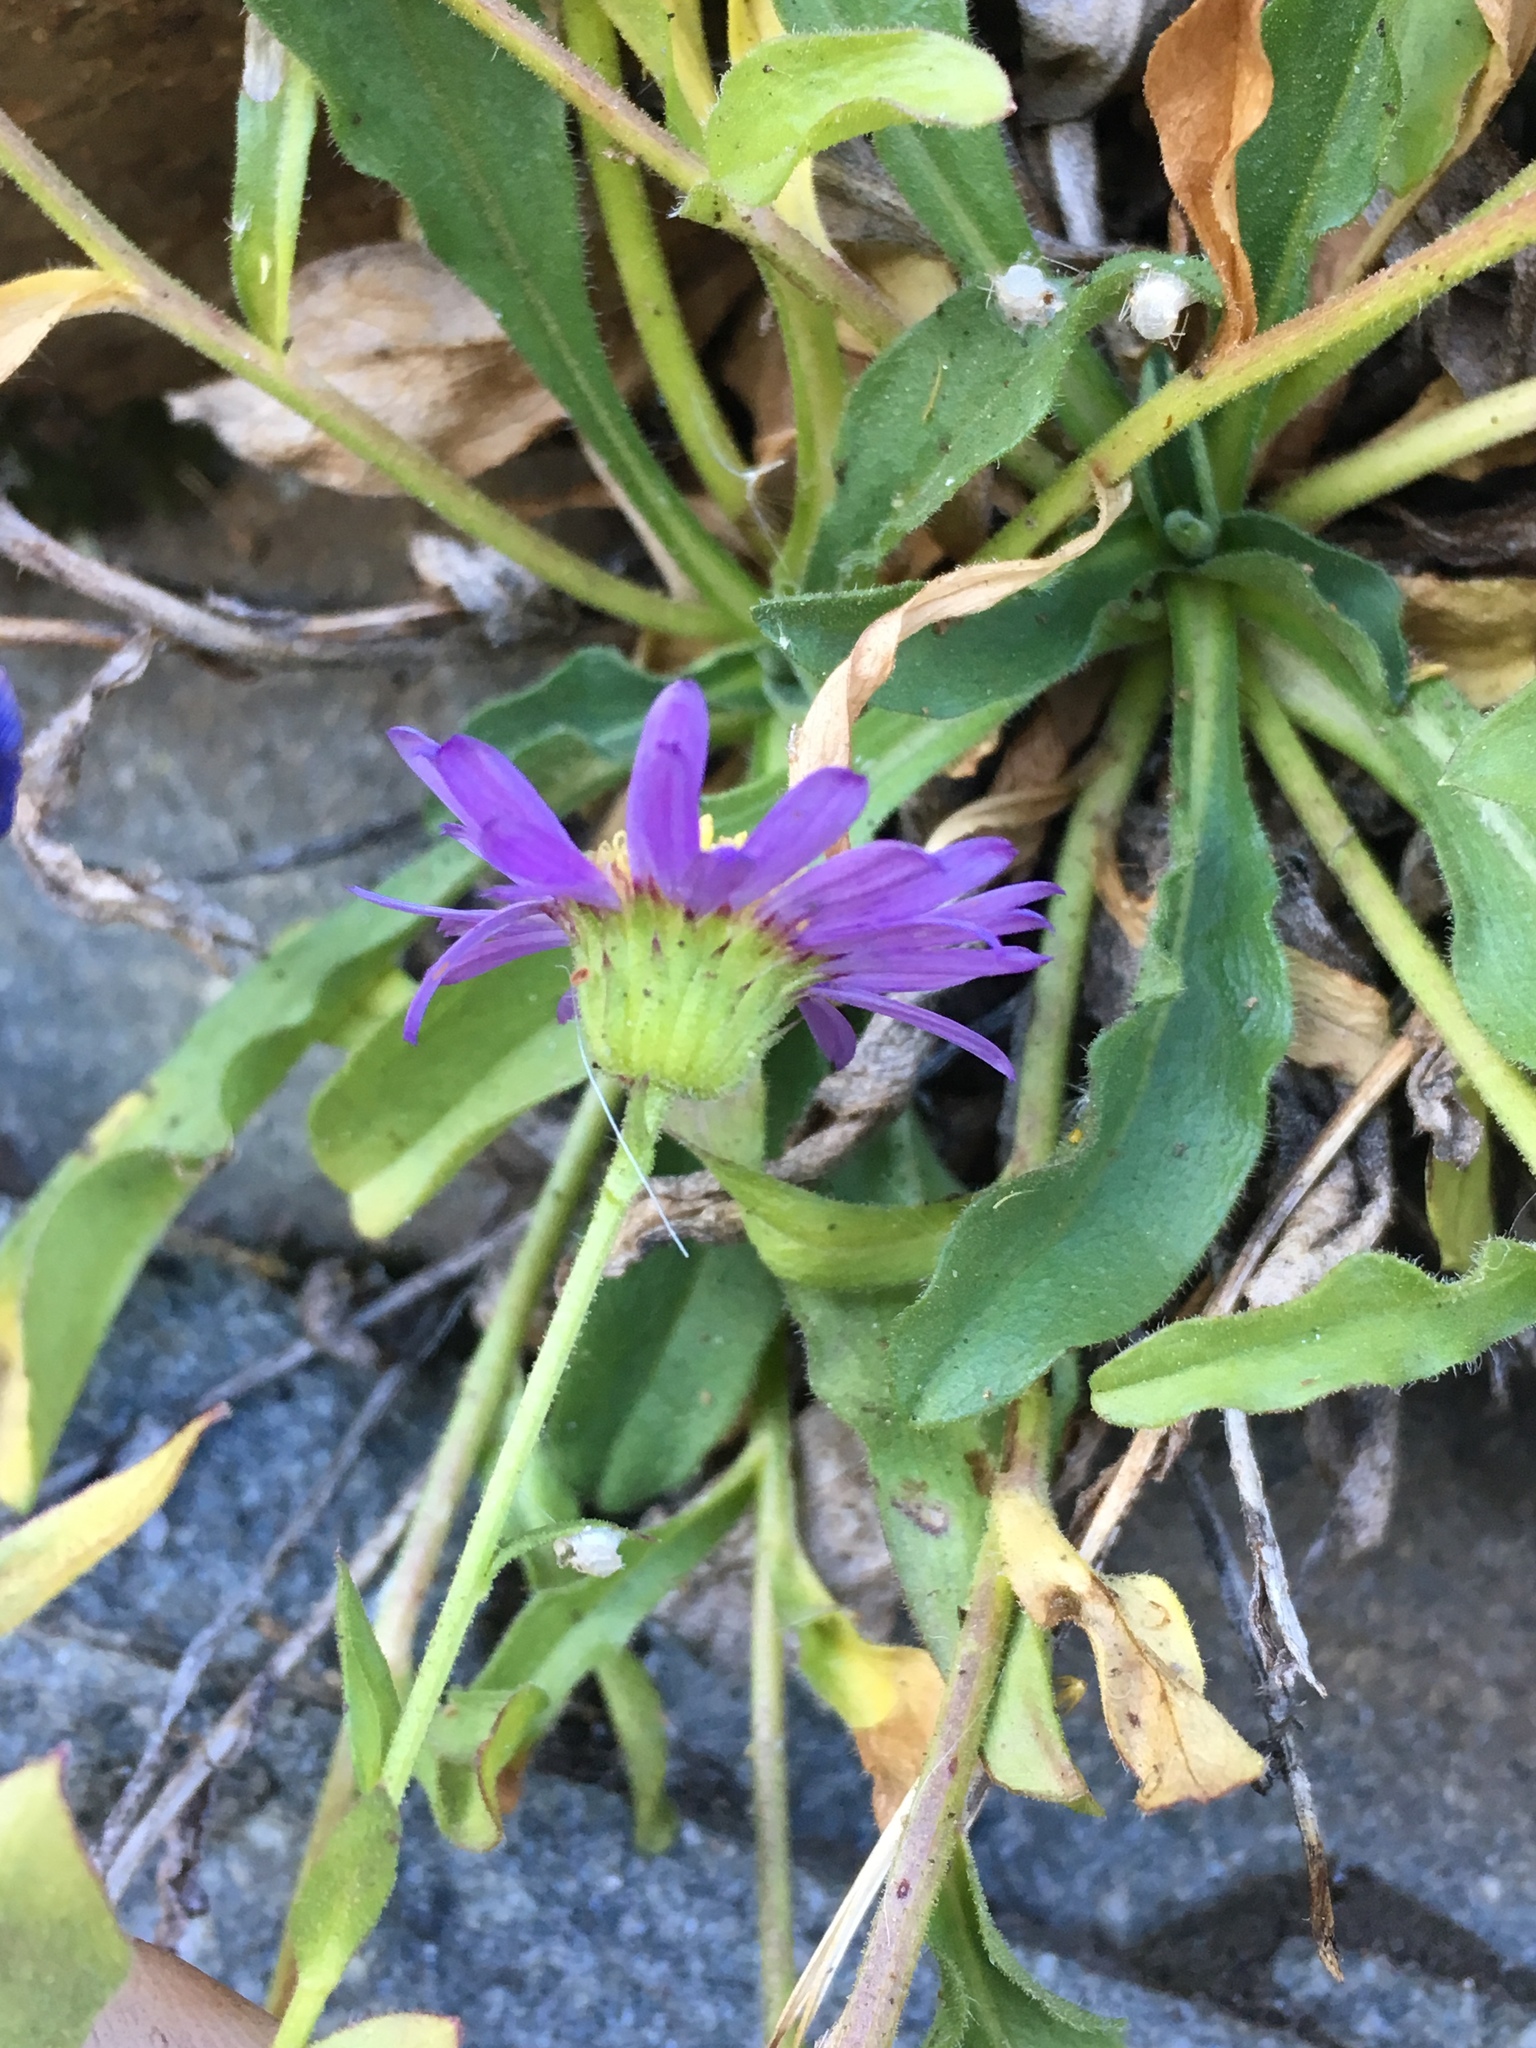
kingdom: Plantae
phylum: Tracheophyta
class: Magnoliopsida
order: Asterales
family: Asteraceae
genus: Erigeron
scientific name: Erigeron leibergii
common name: Leiberg's daisy
